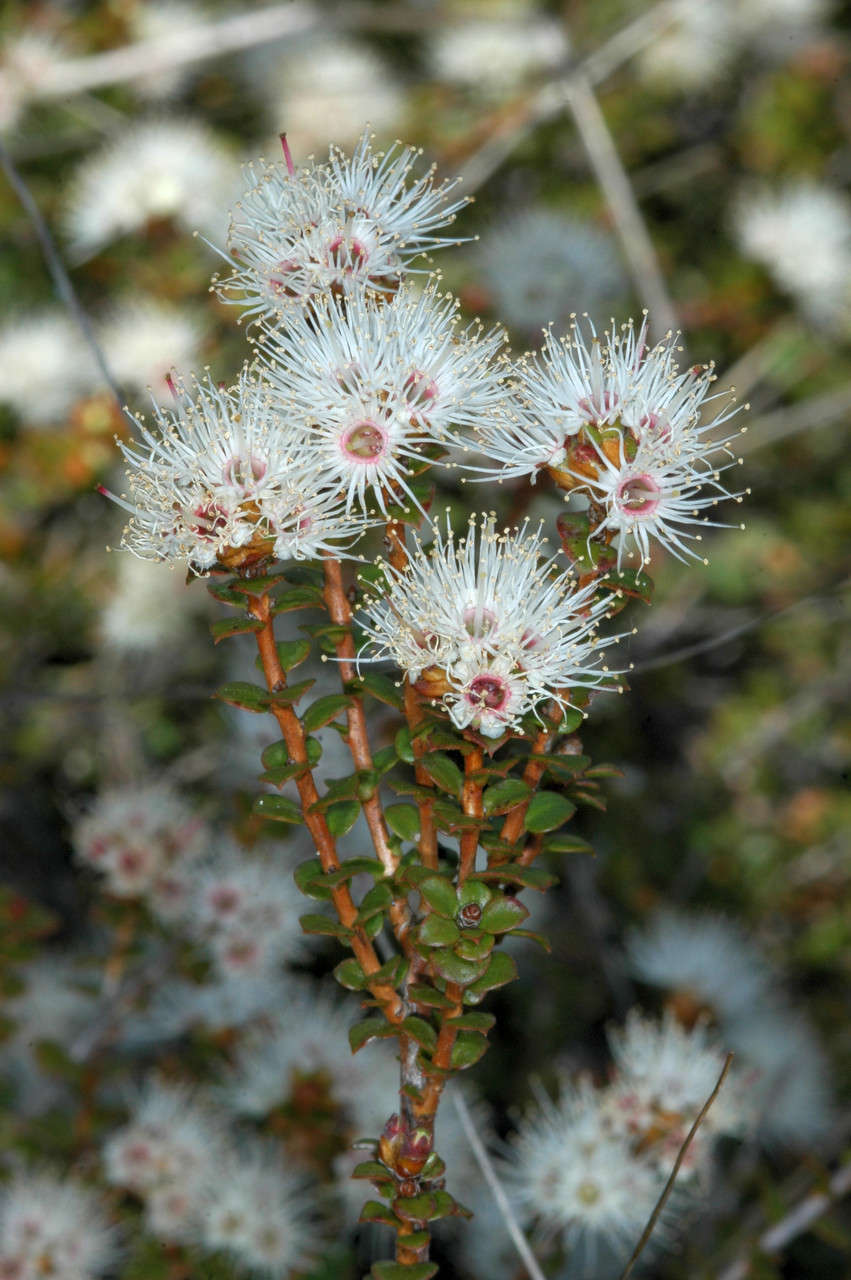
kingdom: Plantae
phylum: Tracheophyta
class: Magnoliopsida
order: Myrtales
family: Myrtaceae
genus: Kunzea
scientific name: Kunzea pomifera
